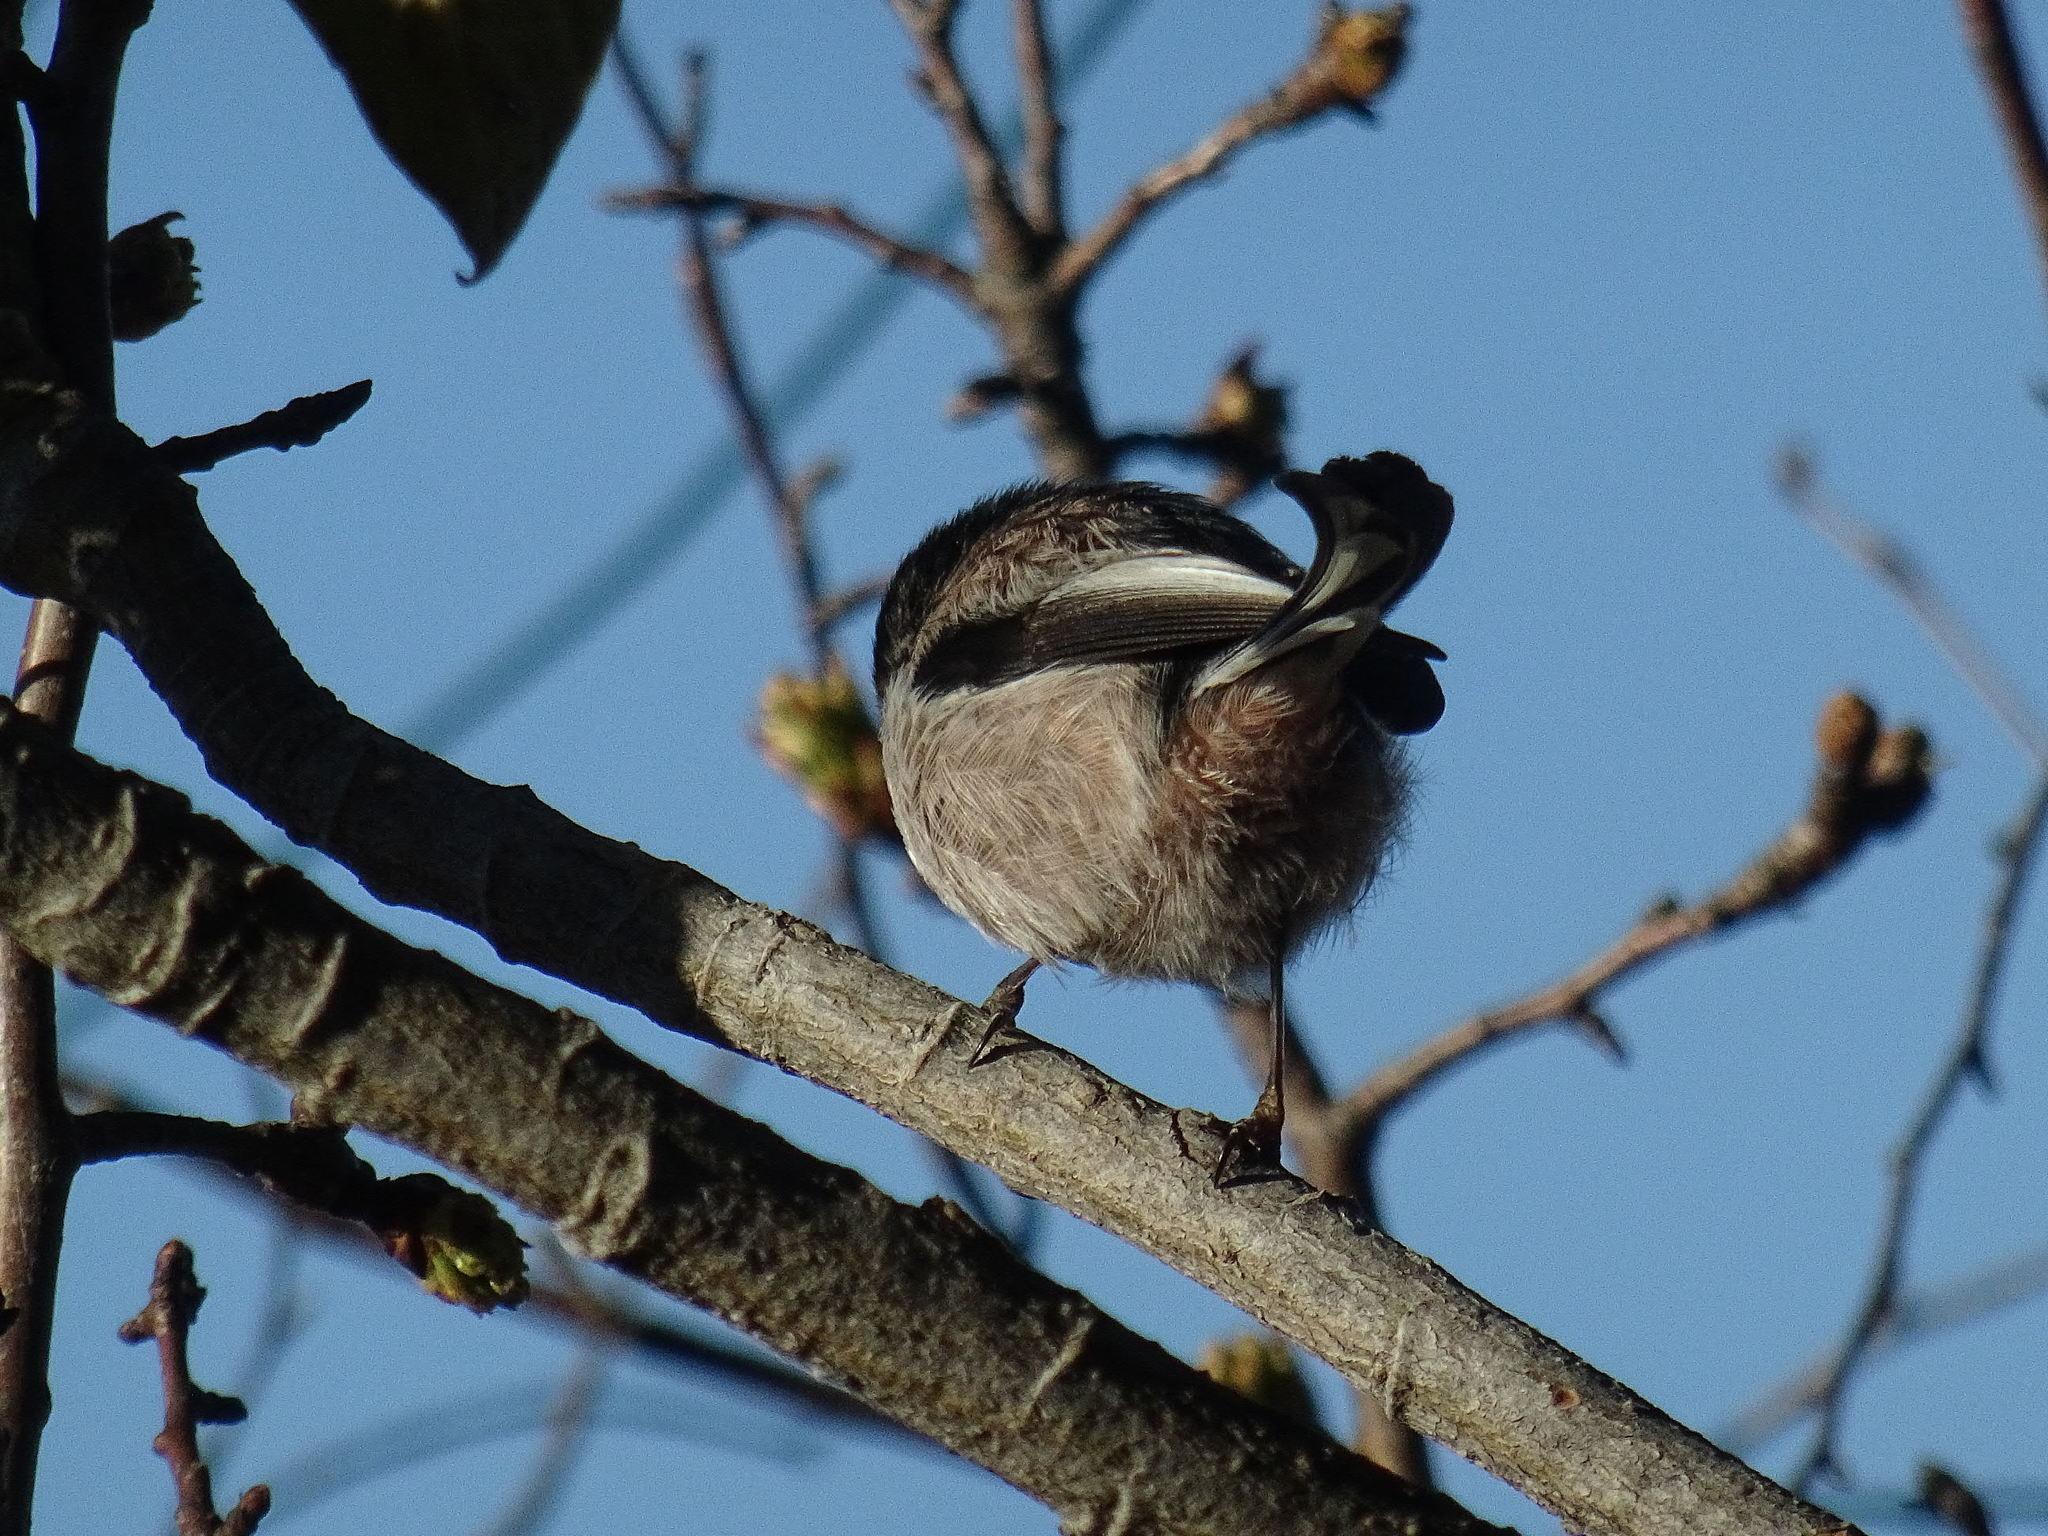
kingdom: Animalia
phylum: Chordata
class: Aves
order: Passeriformes
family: Aegithalidae
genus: Aegithalos
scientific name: Aegithalos caudatus
